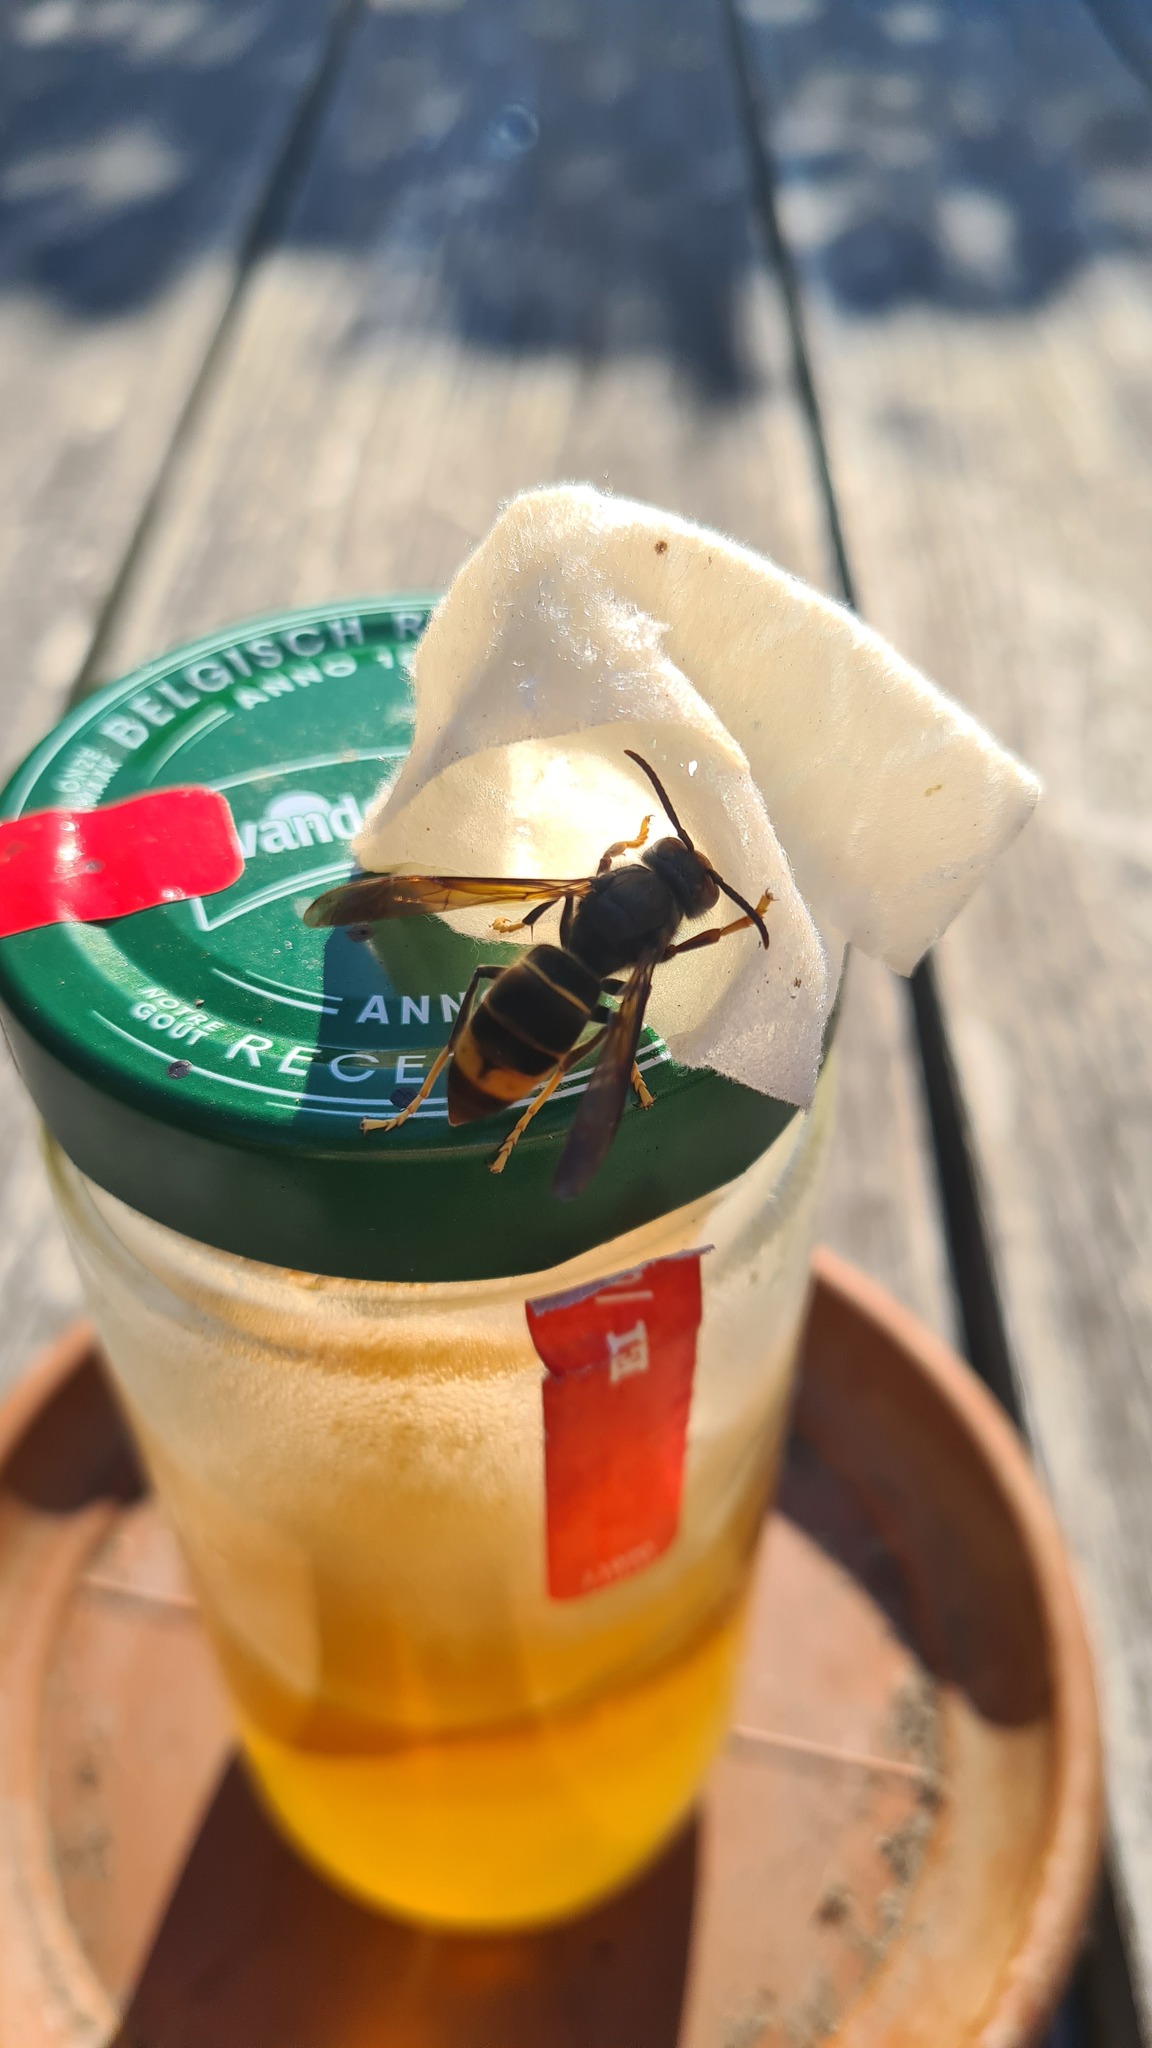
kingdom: Animalia
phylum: Arthropoda
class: Insecta
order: Hymenoptera
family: Vespidae
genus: Vespa
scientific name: Vespa velutina
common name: Asian hornet
